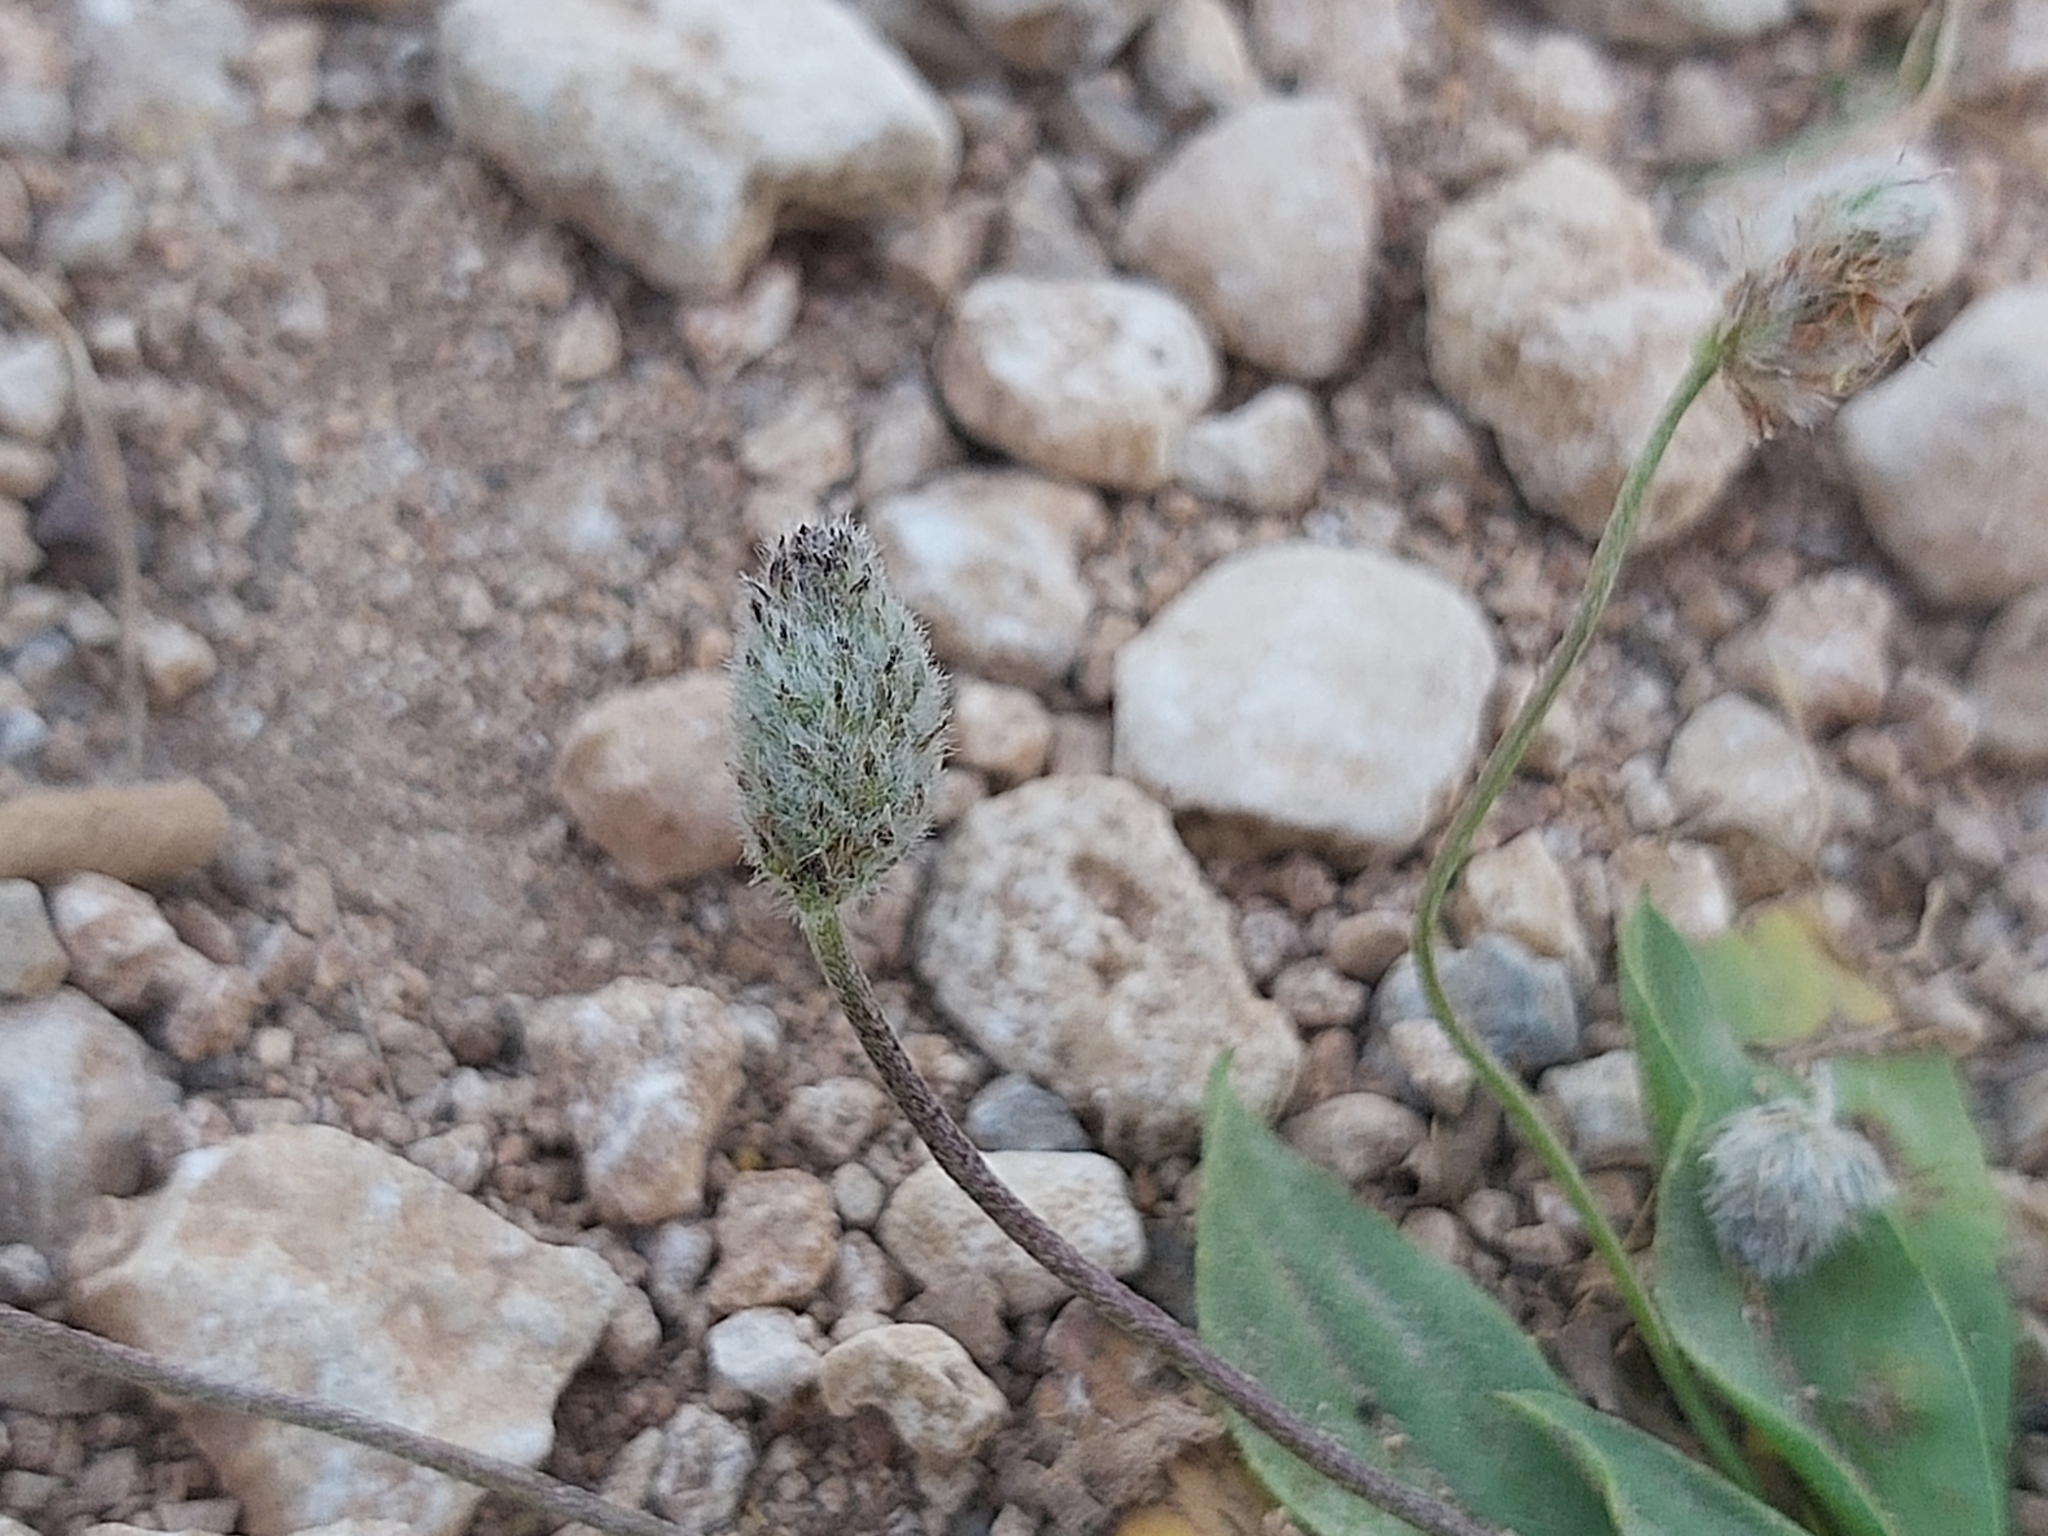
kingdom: Plantae
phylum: Tracheophyta
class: Magnoliopsida
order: Lamiales
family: Plantaginaceae
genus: Plantago
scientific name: Plantago lagopus
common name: Hare-foot plantain
